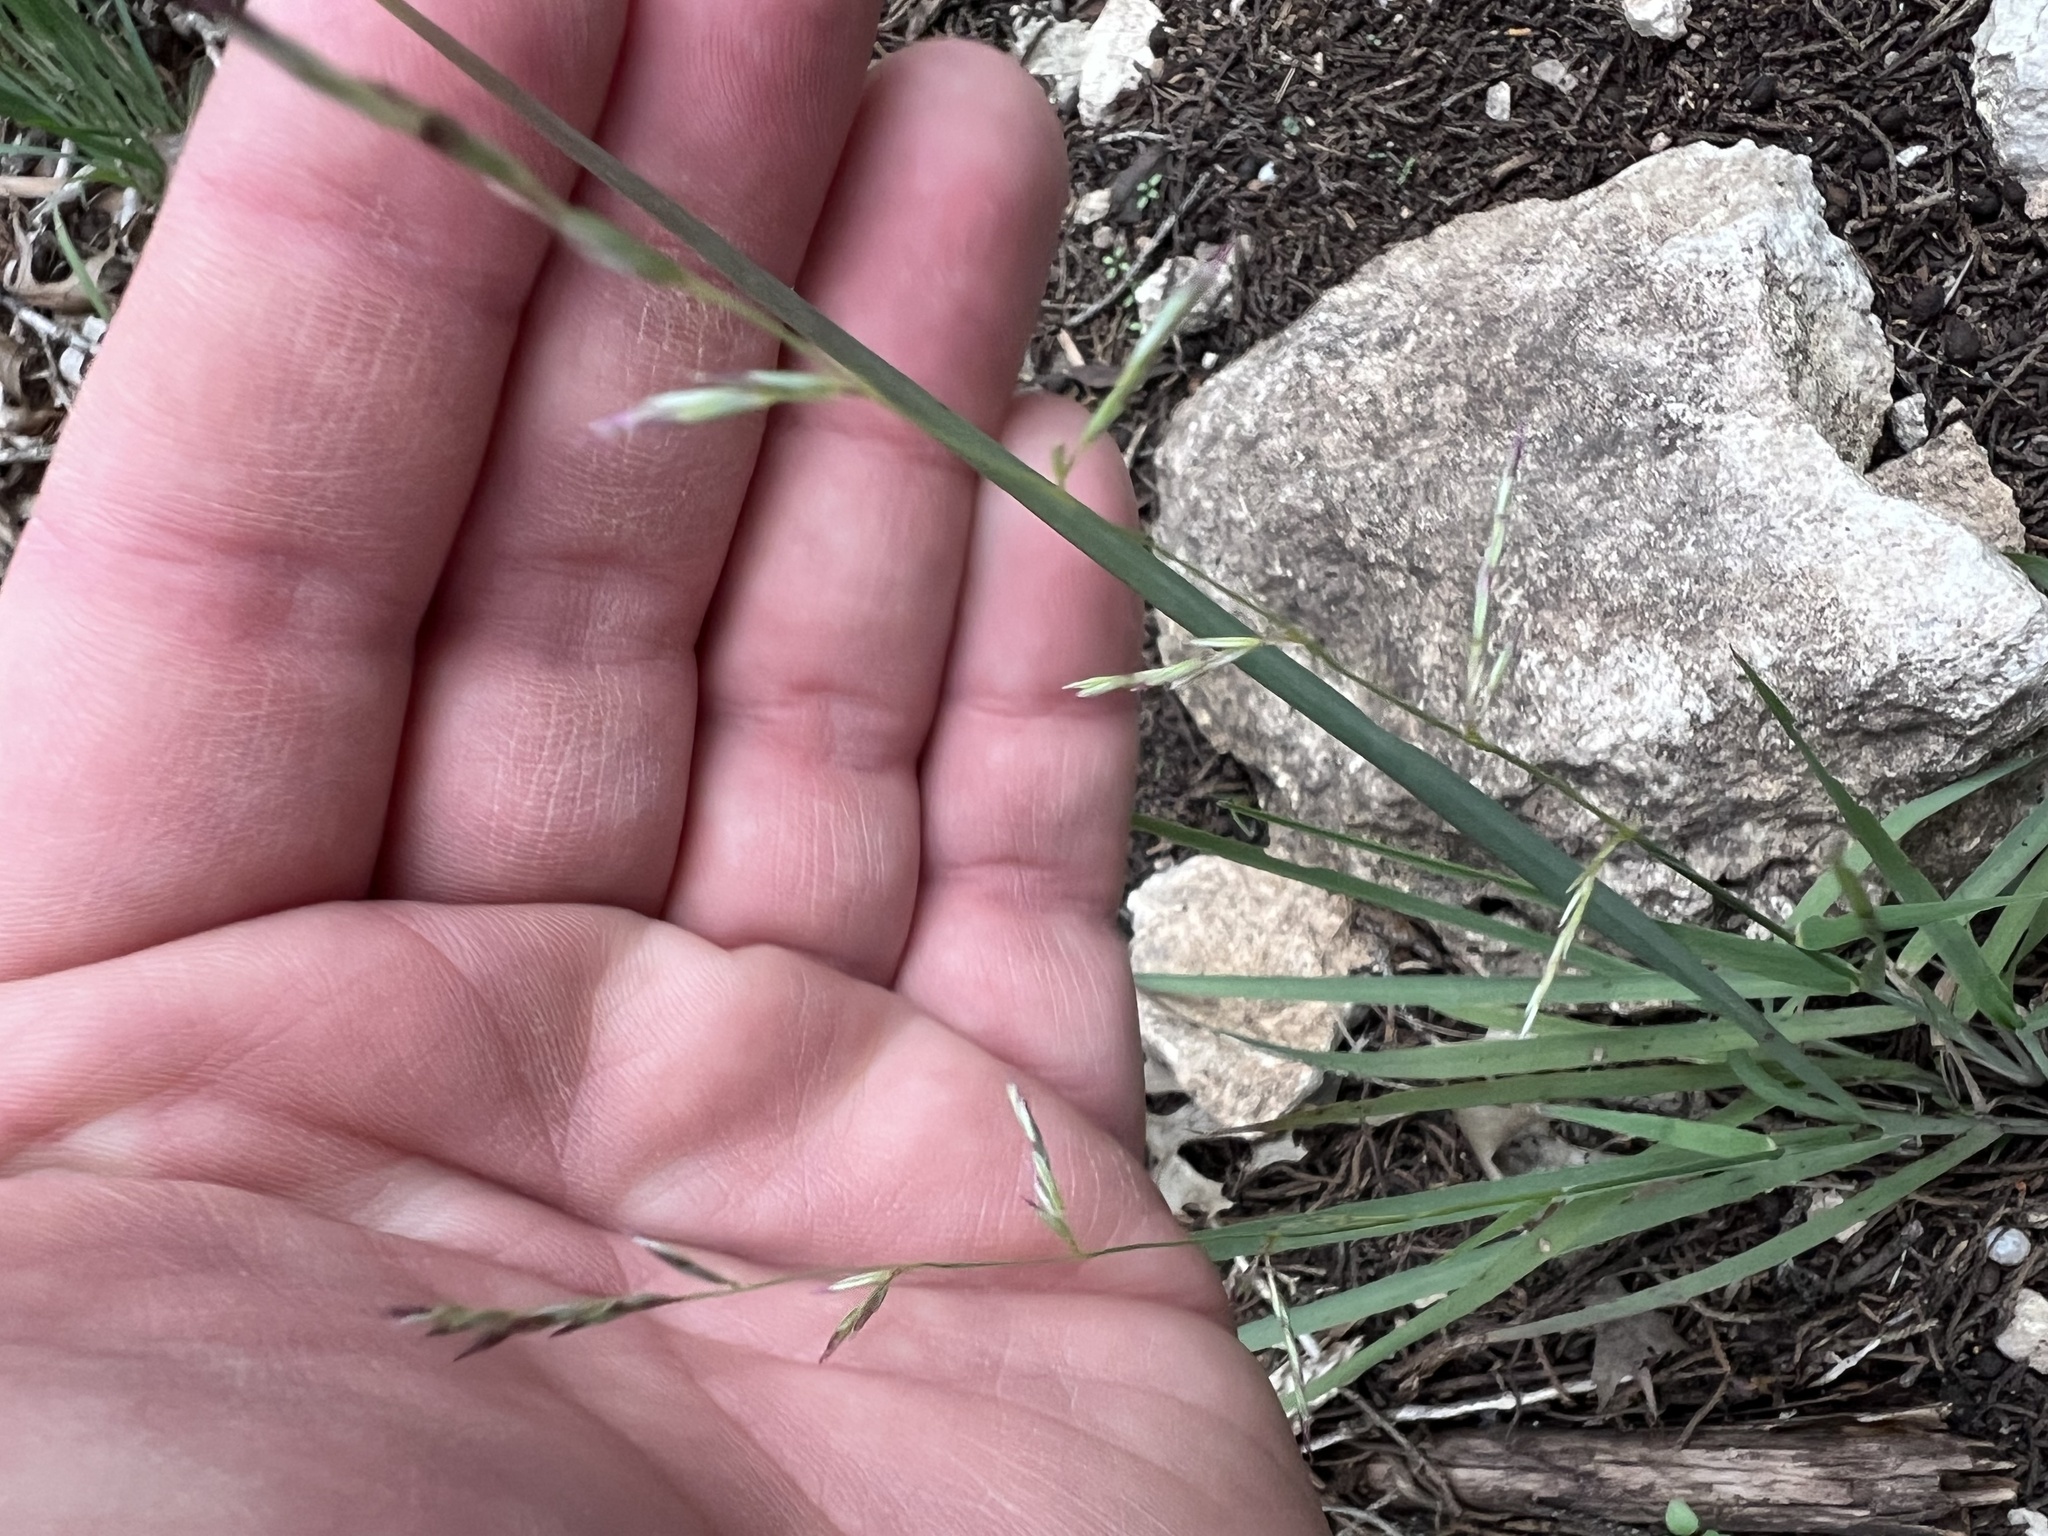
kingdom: Plantae
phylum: Tracheophyta
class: Liliopsida
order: Poales
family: Poaceae
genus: Tridentopsis
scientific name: Tridentopsis buckleyana
